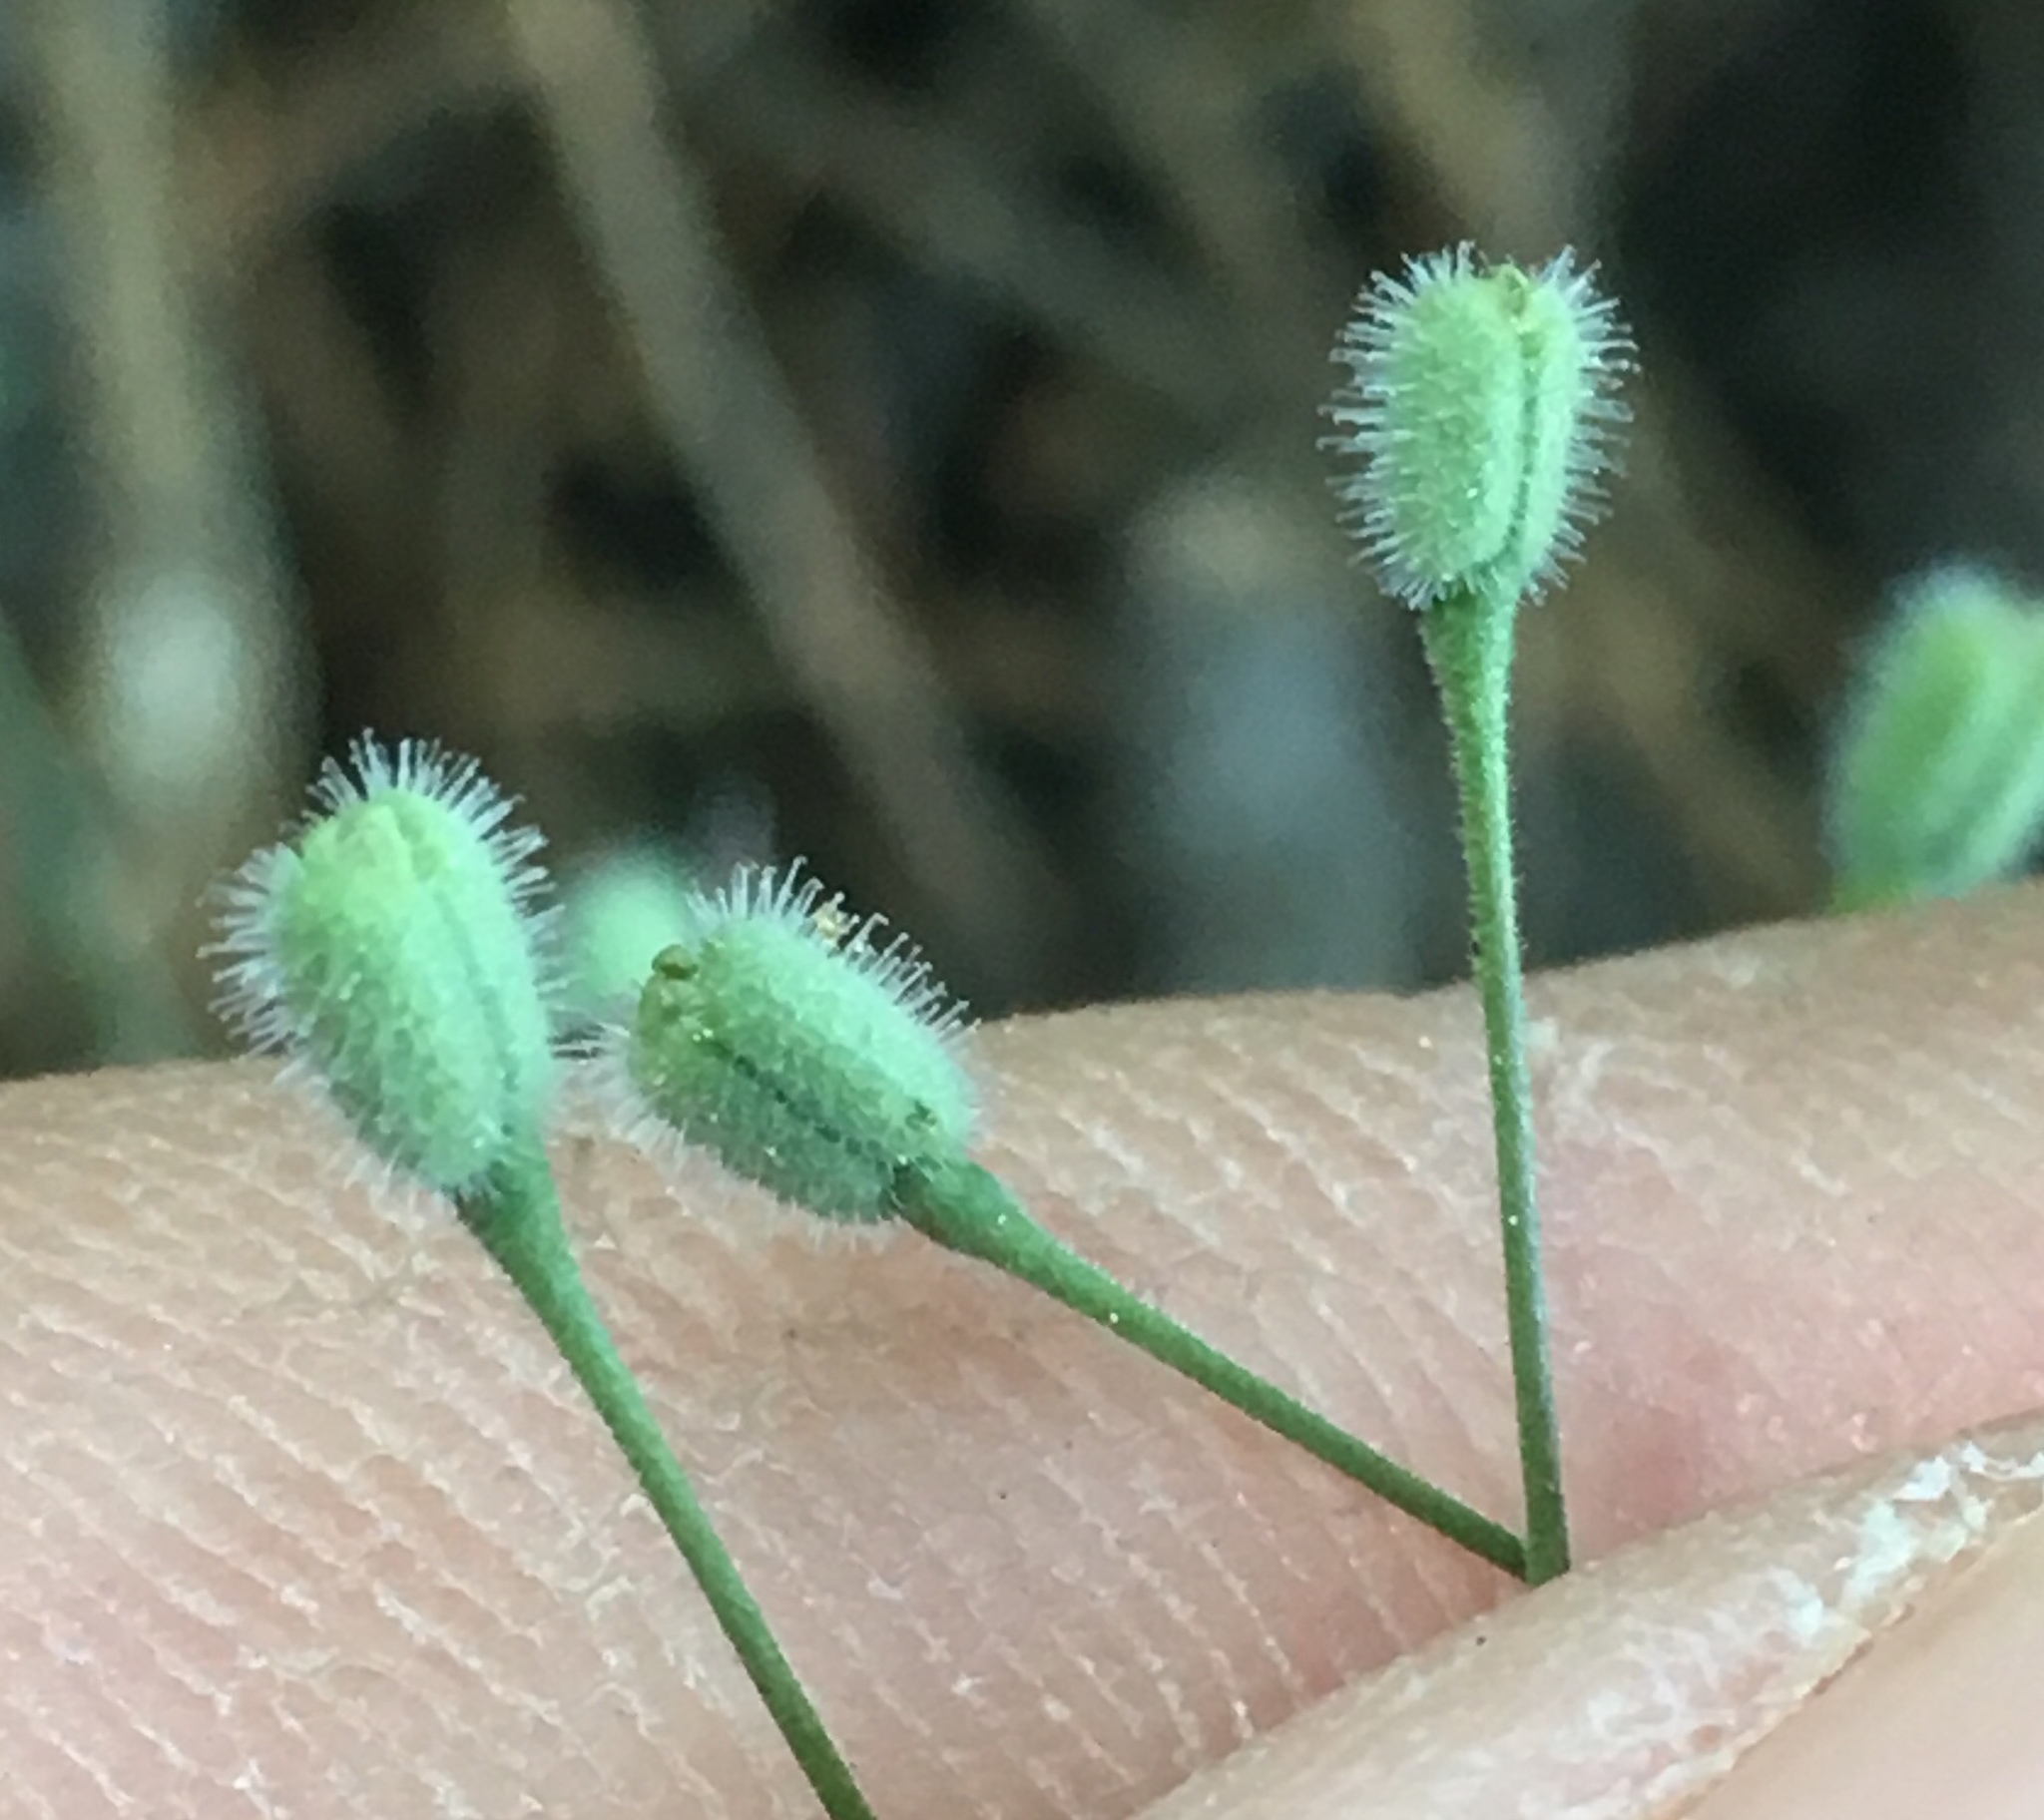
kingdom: Plantae
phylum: Tracheophyta
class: Magnoliopsida
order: Gentianales
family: Rubiaceae
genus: Kelloggia
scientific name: Kelloggia galioides
